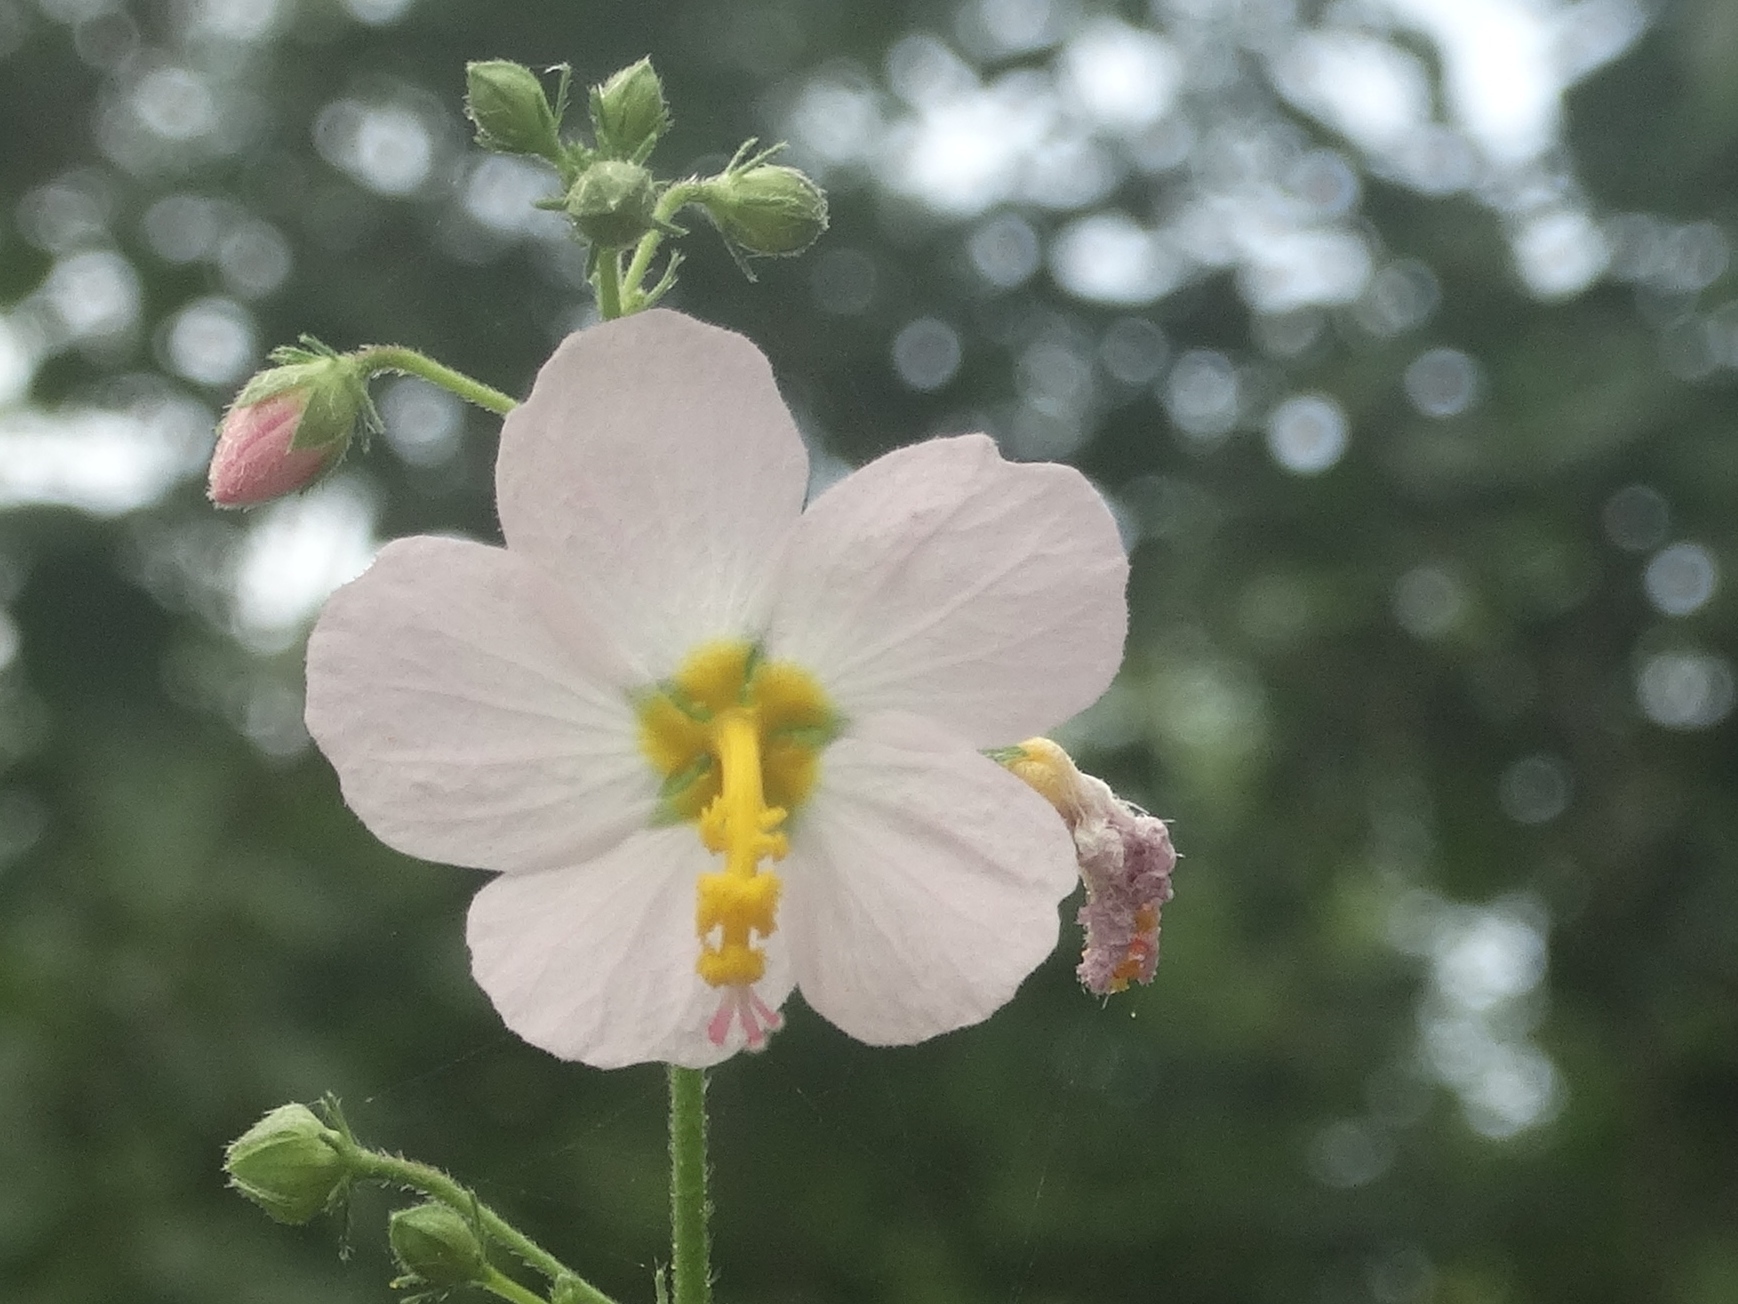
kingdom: Plantae
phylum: Tracheophyta
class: Magnoliopsida
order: Malvales
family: Malvaceae
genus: Kosteletzkya
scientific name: Kosteletzkya depressa
